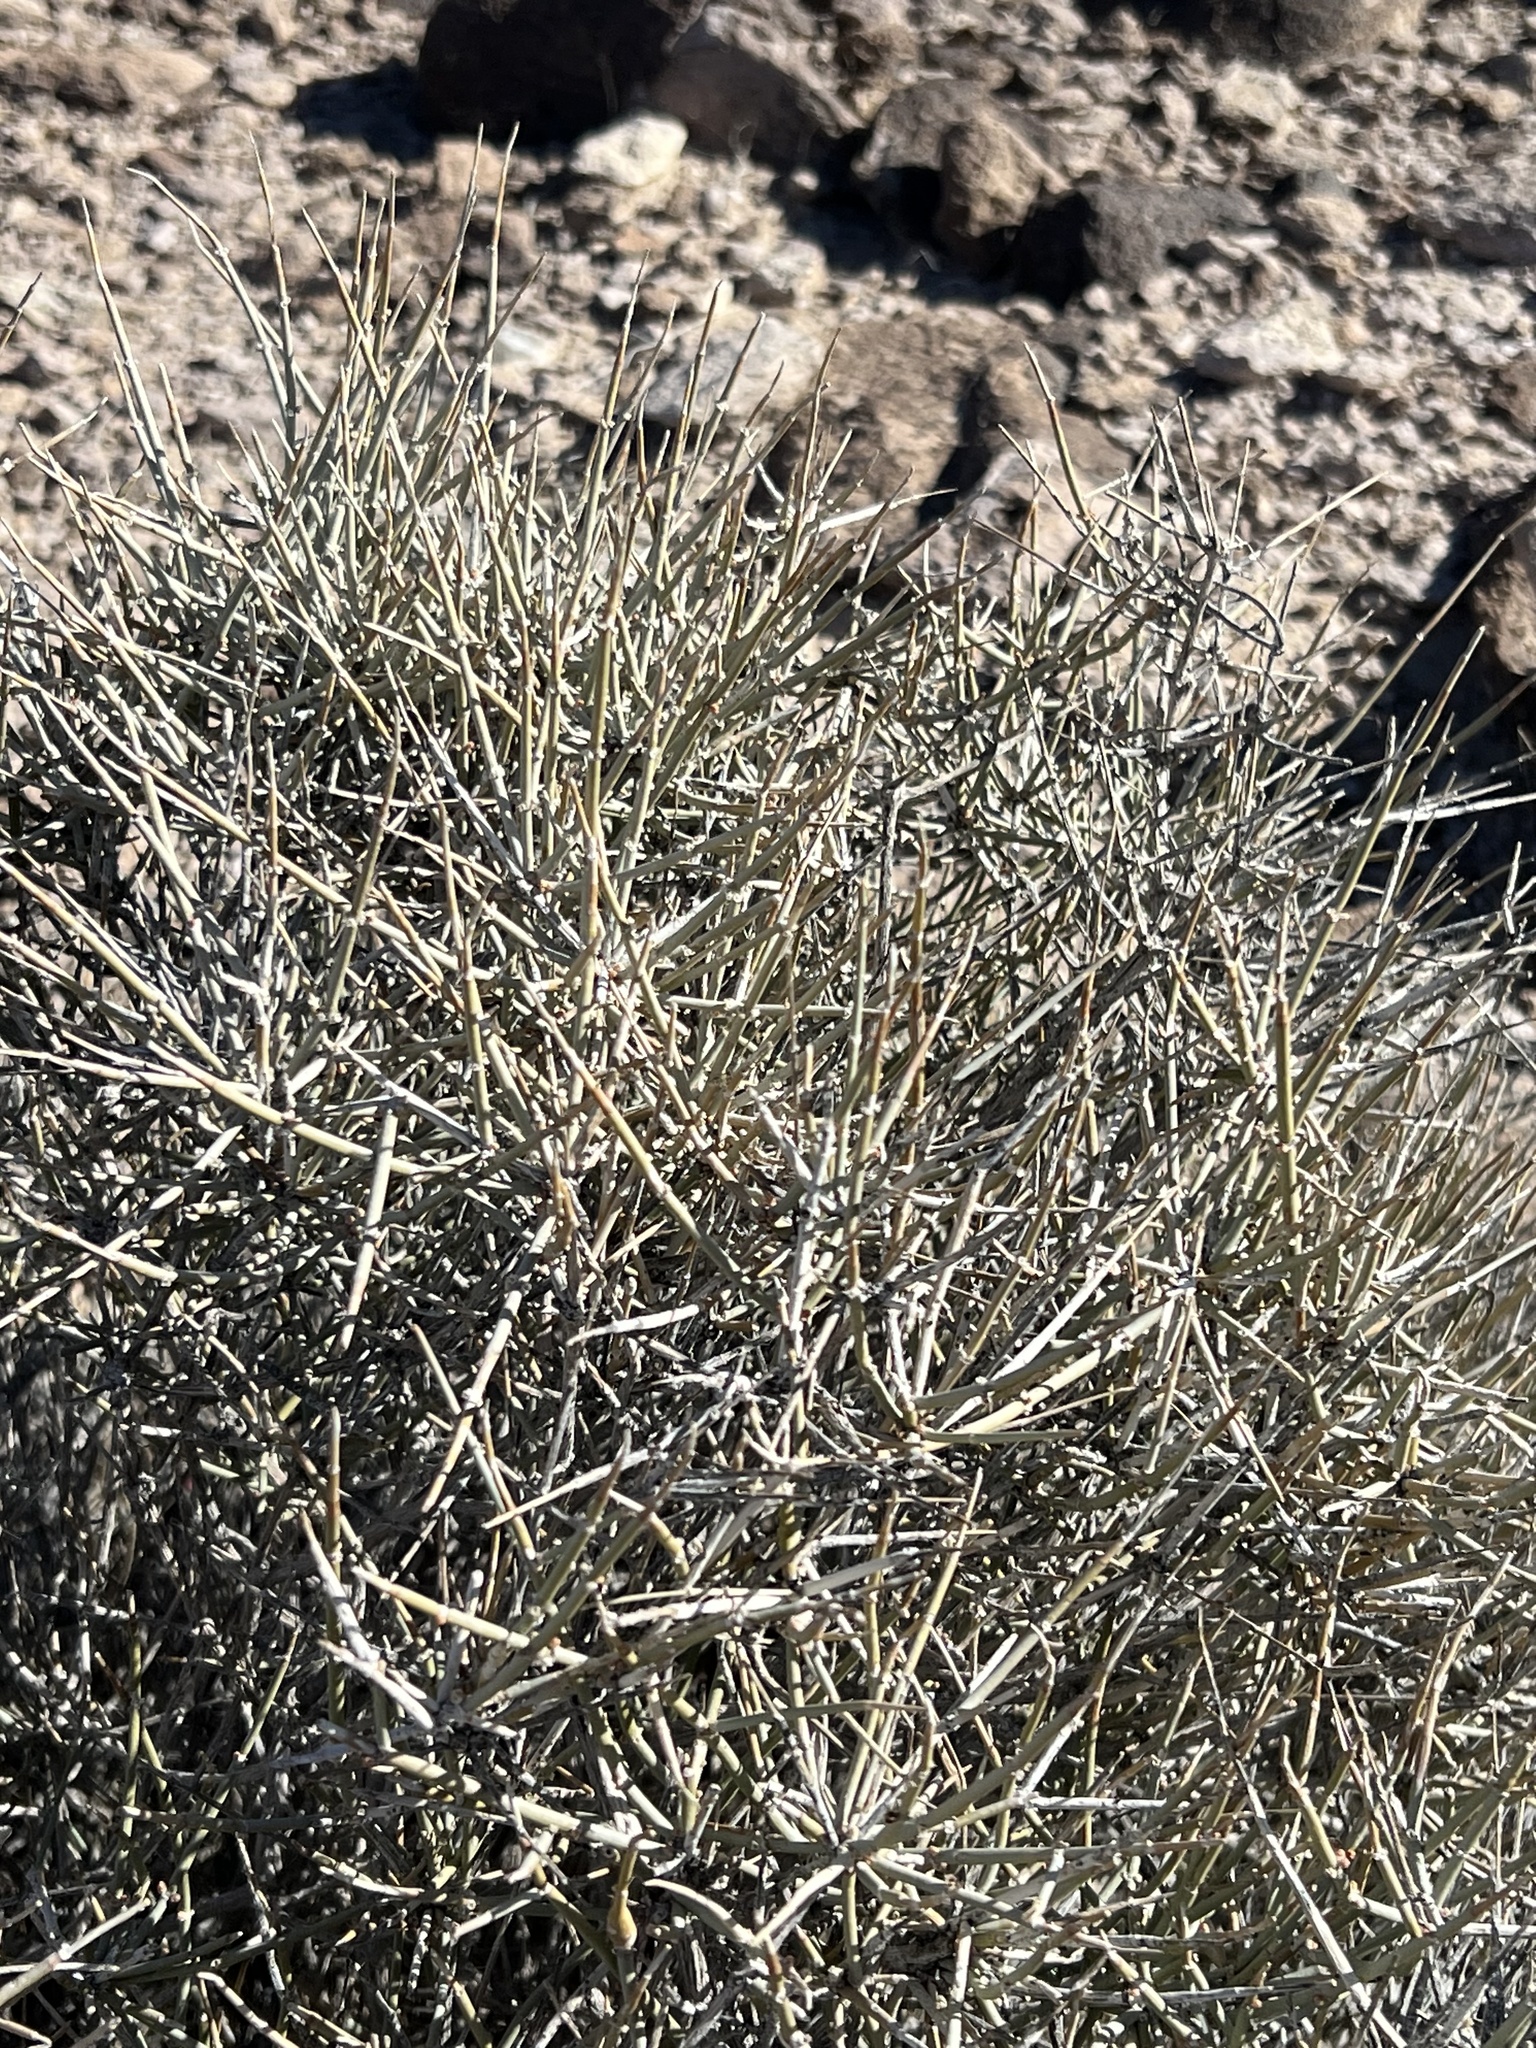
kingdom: Plantae
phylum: Tracheophyta
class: Gnetopsida
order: Ephedrales
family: Ephedraceae
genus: Ephedra
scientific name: Ephedra nevadensis
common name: Gray ephedra
